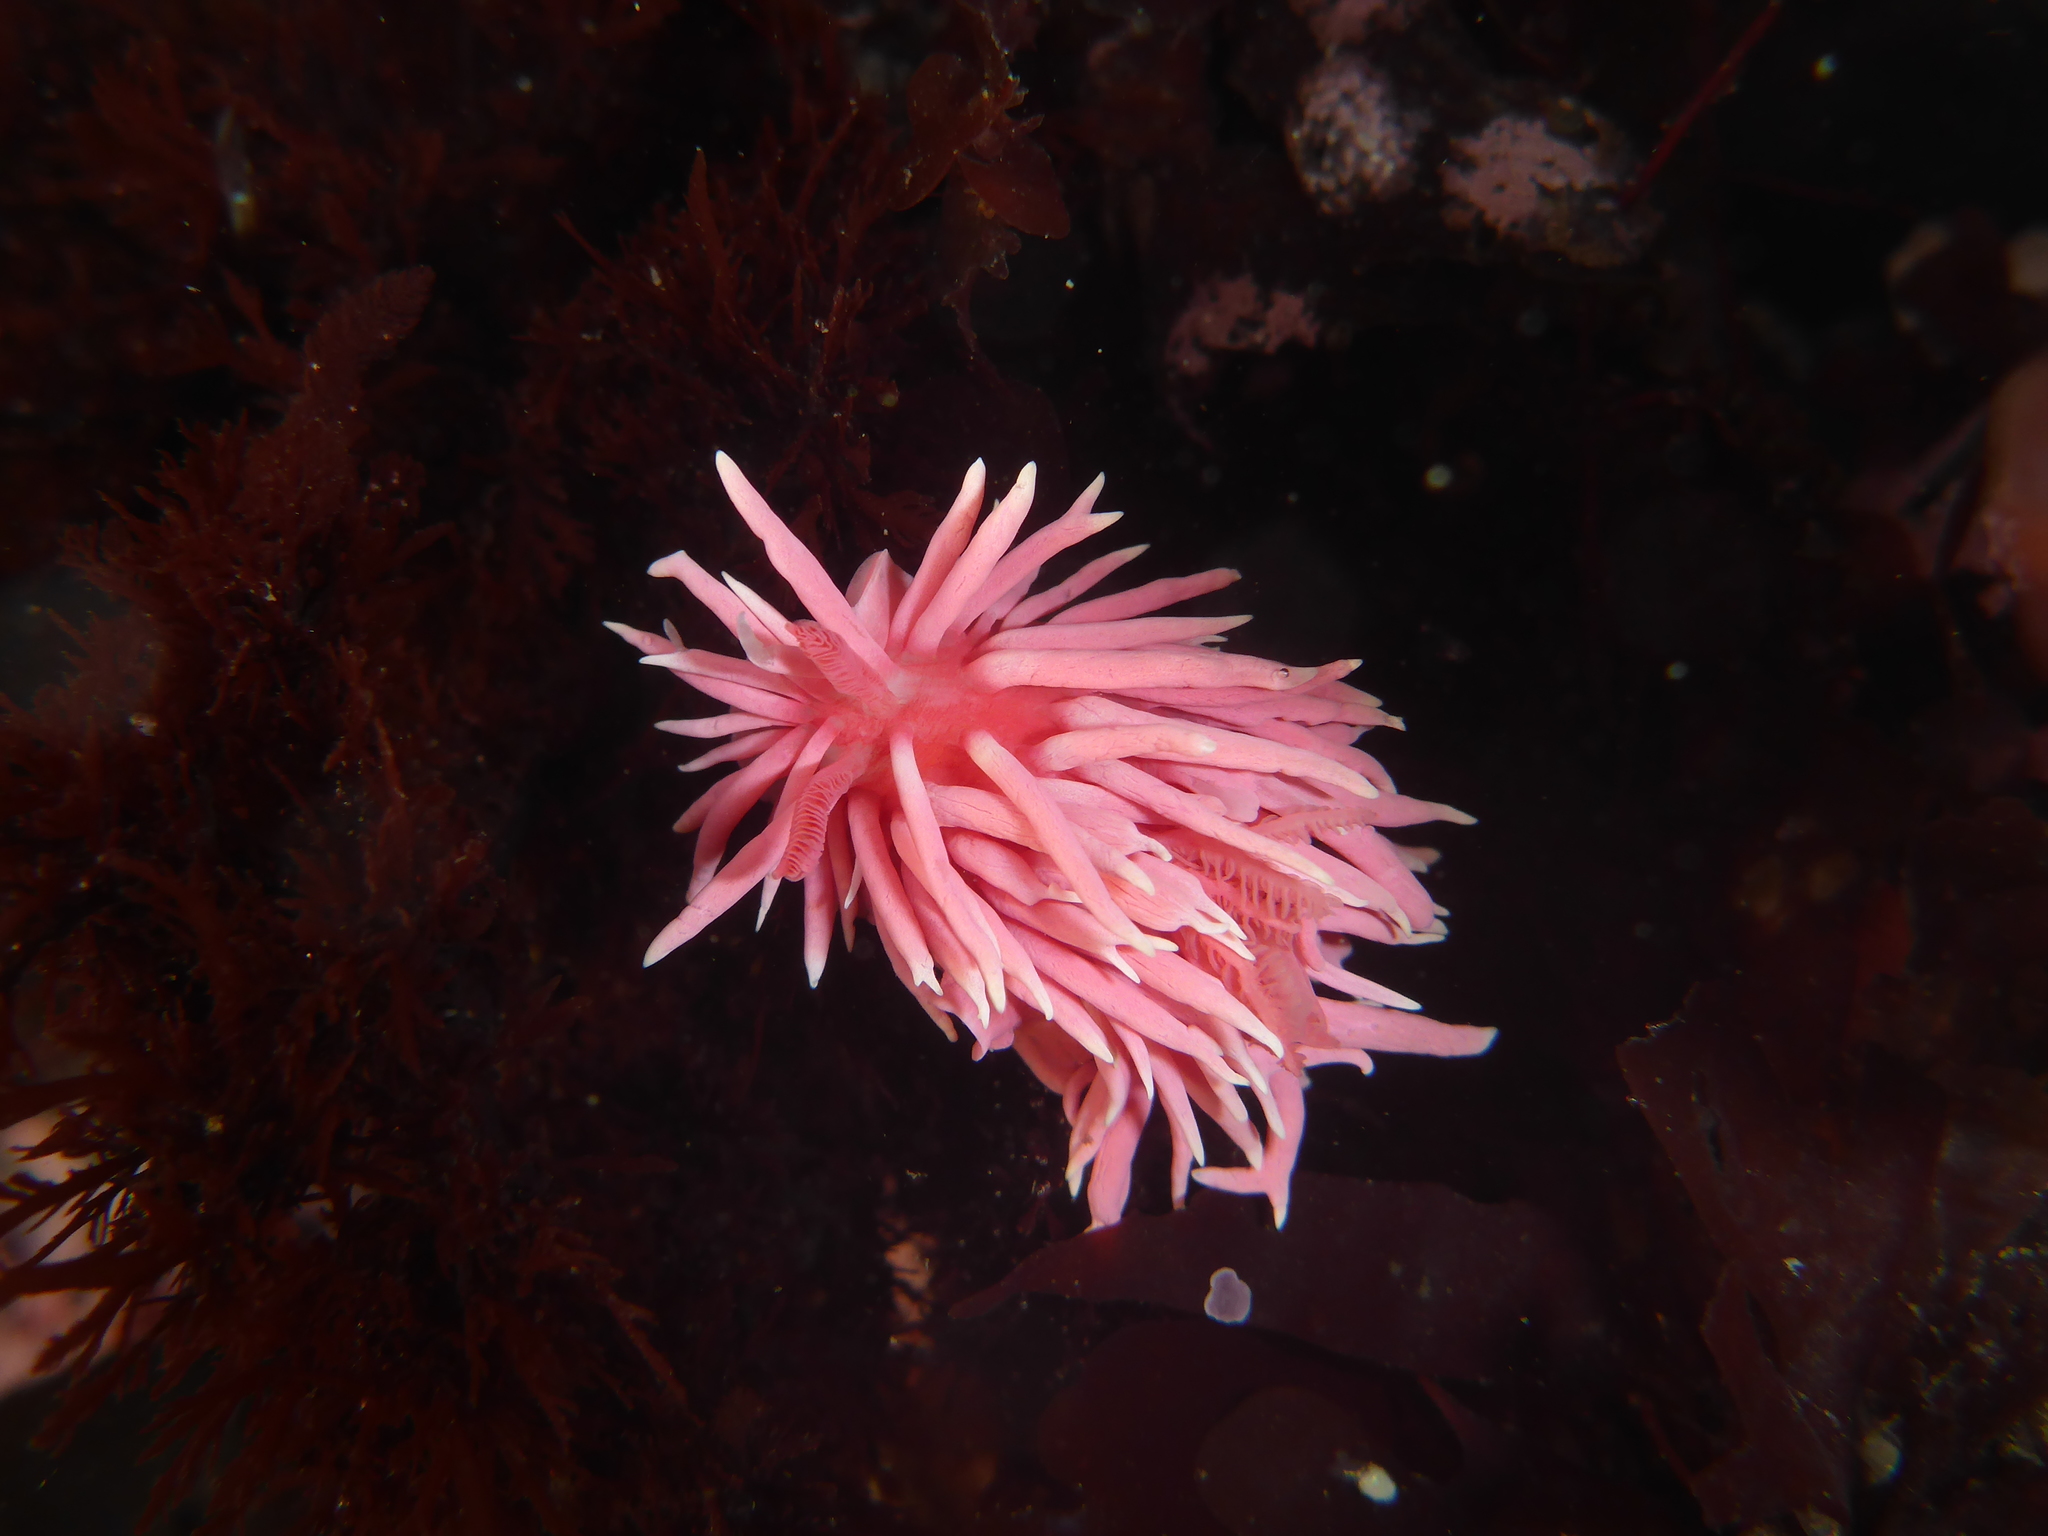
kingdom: Animalia
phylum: Mollusca
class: Gastropoda
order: Nudibranchia
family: Goniodorididae
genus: Okenia
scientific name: Okenia
